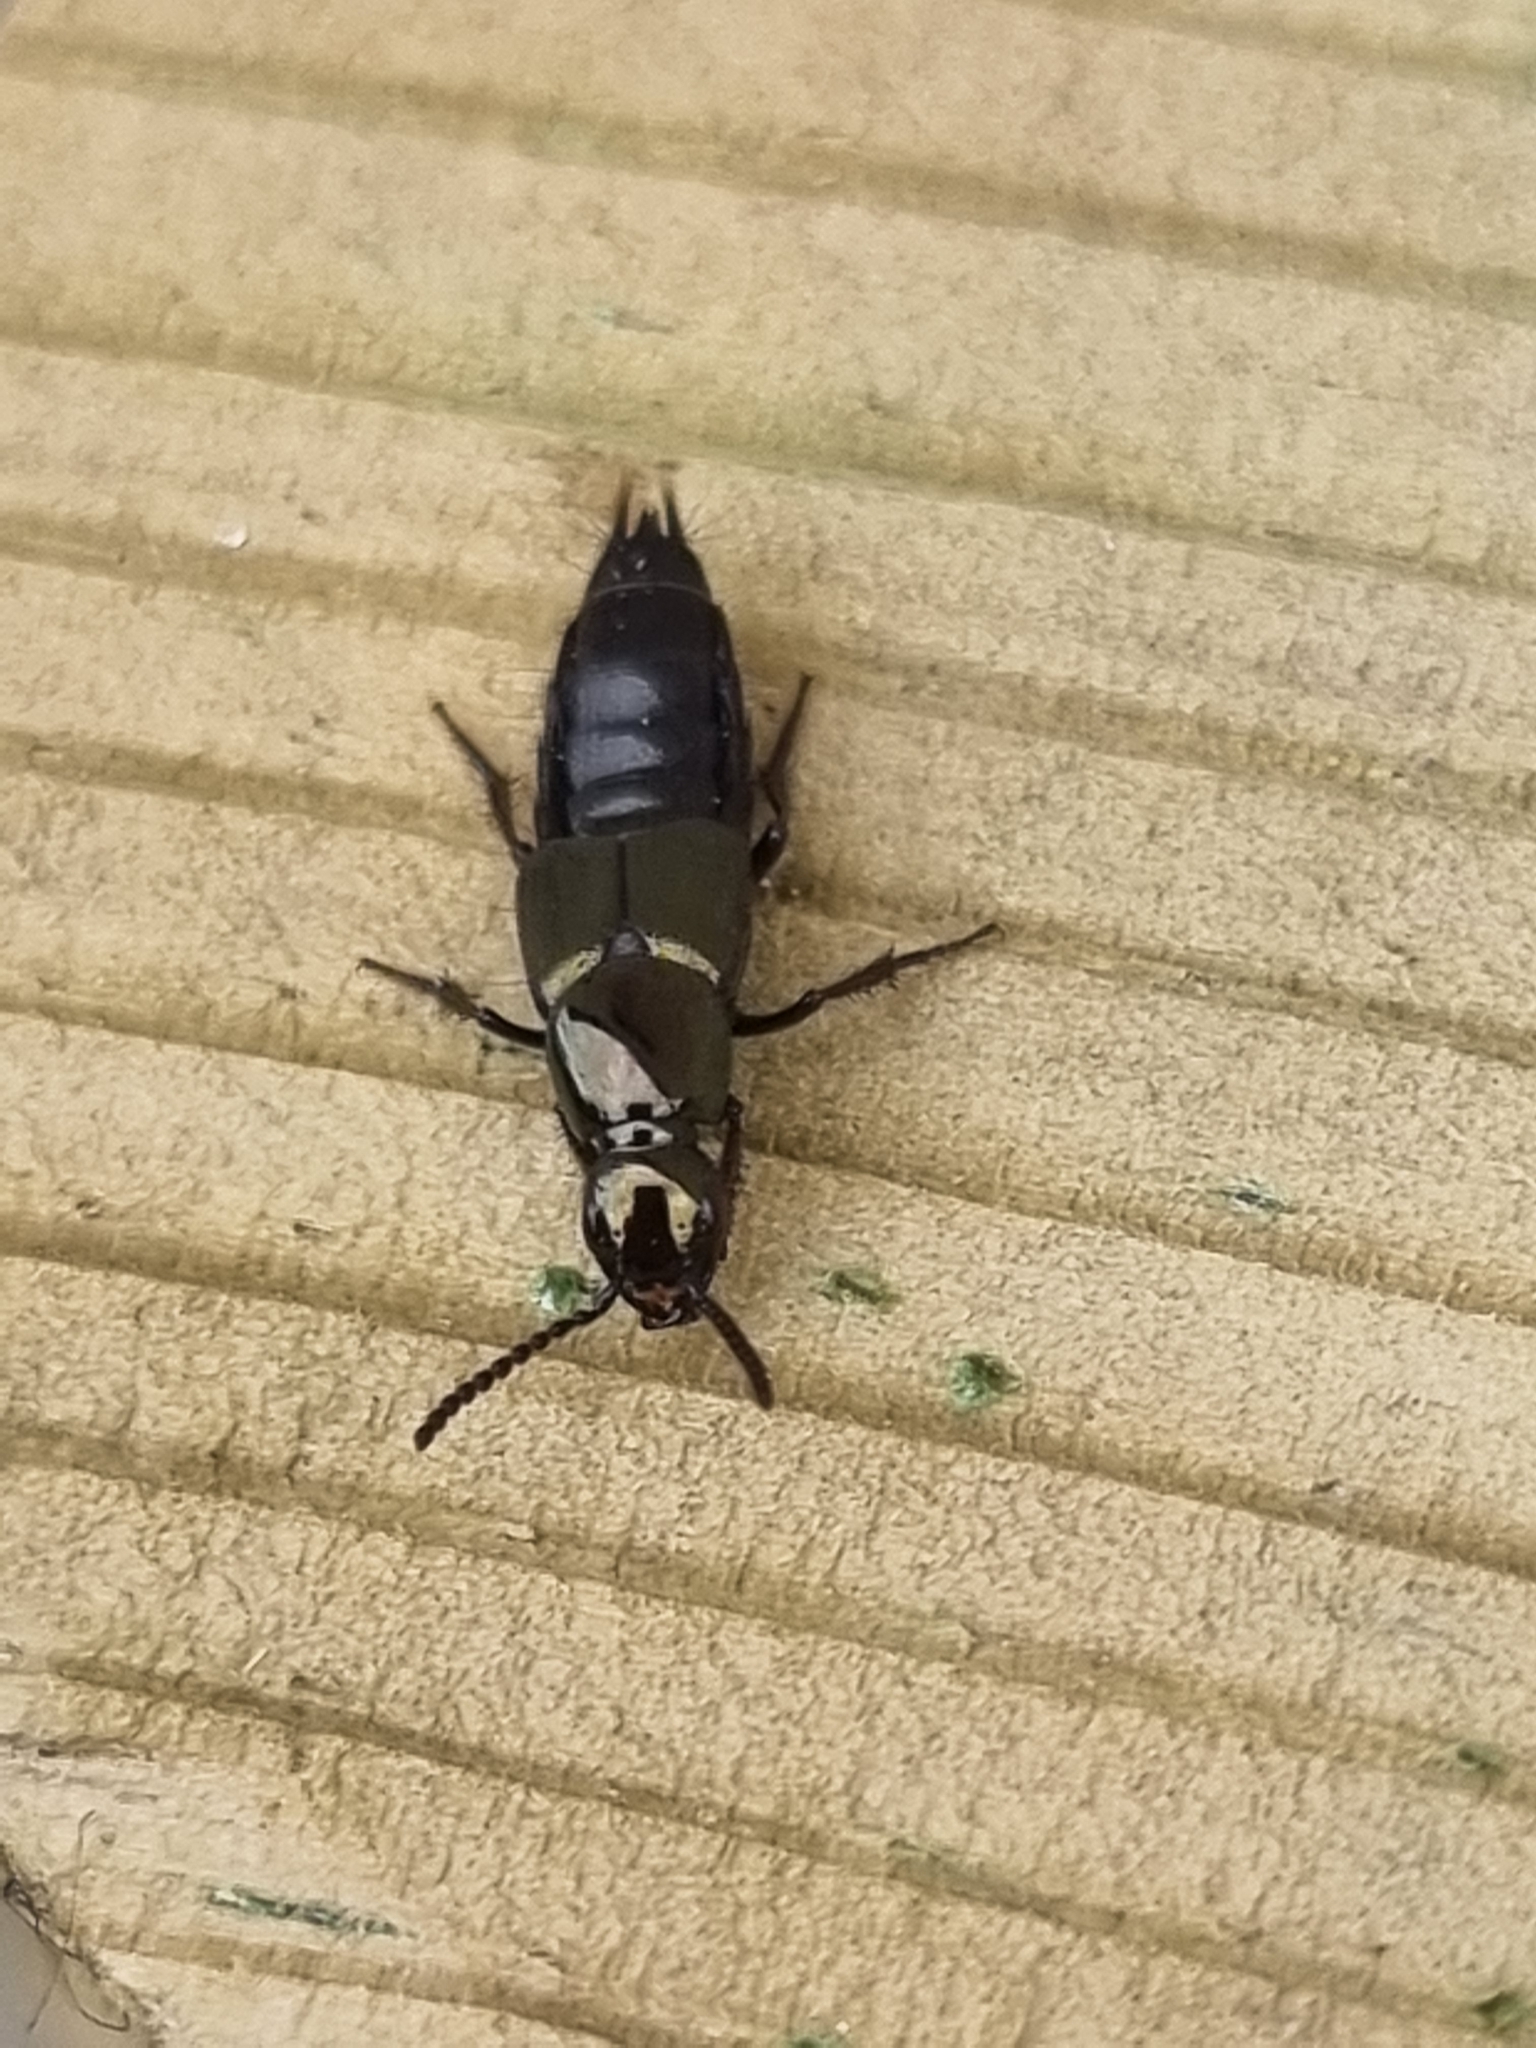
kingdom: Animalia
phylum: Arthropoda
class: Insecta
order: Coleoptera
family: Staphylinidae
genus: Philonthus
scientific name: Philonthus laminatus
